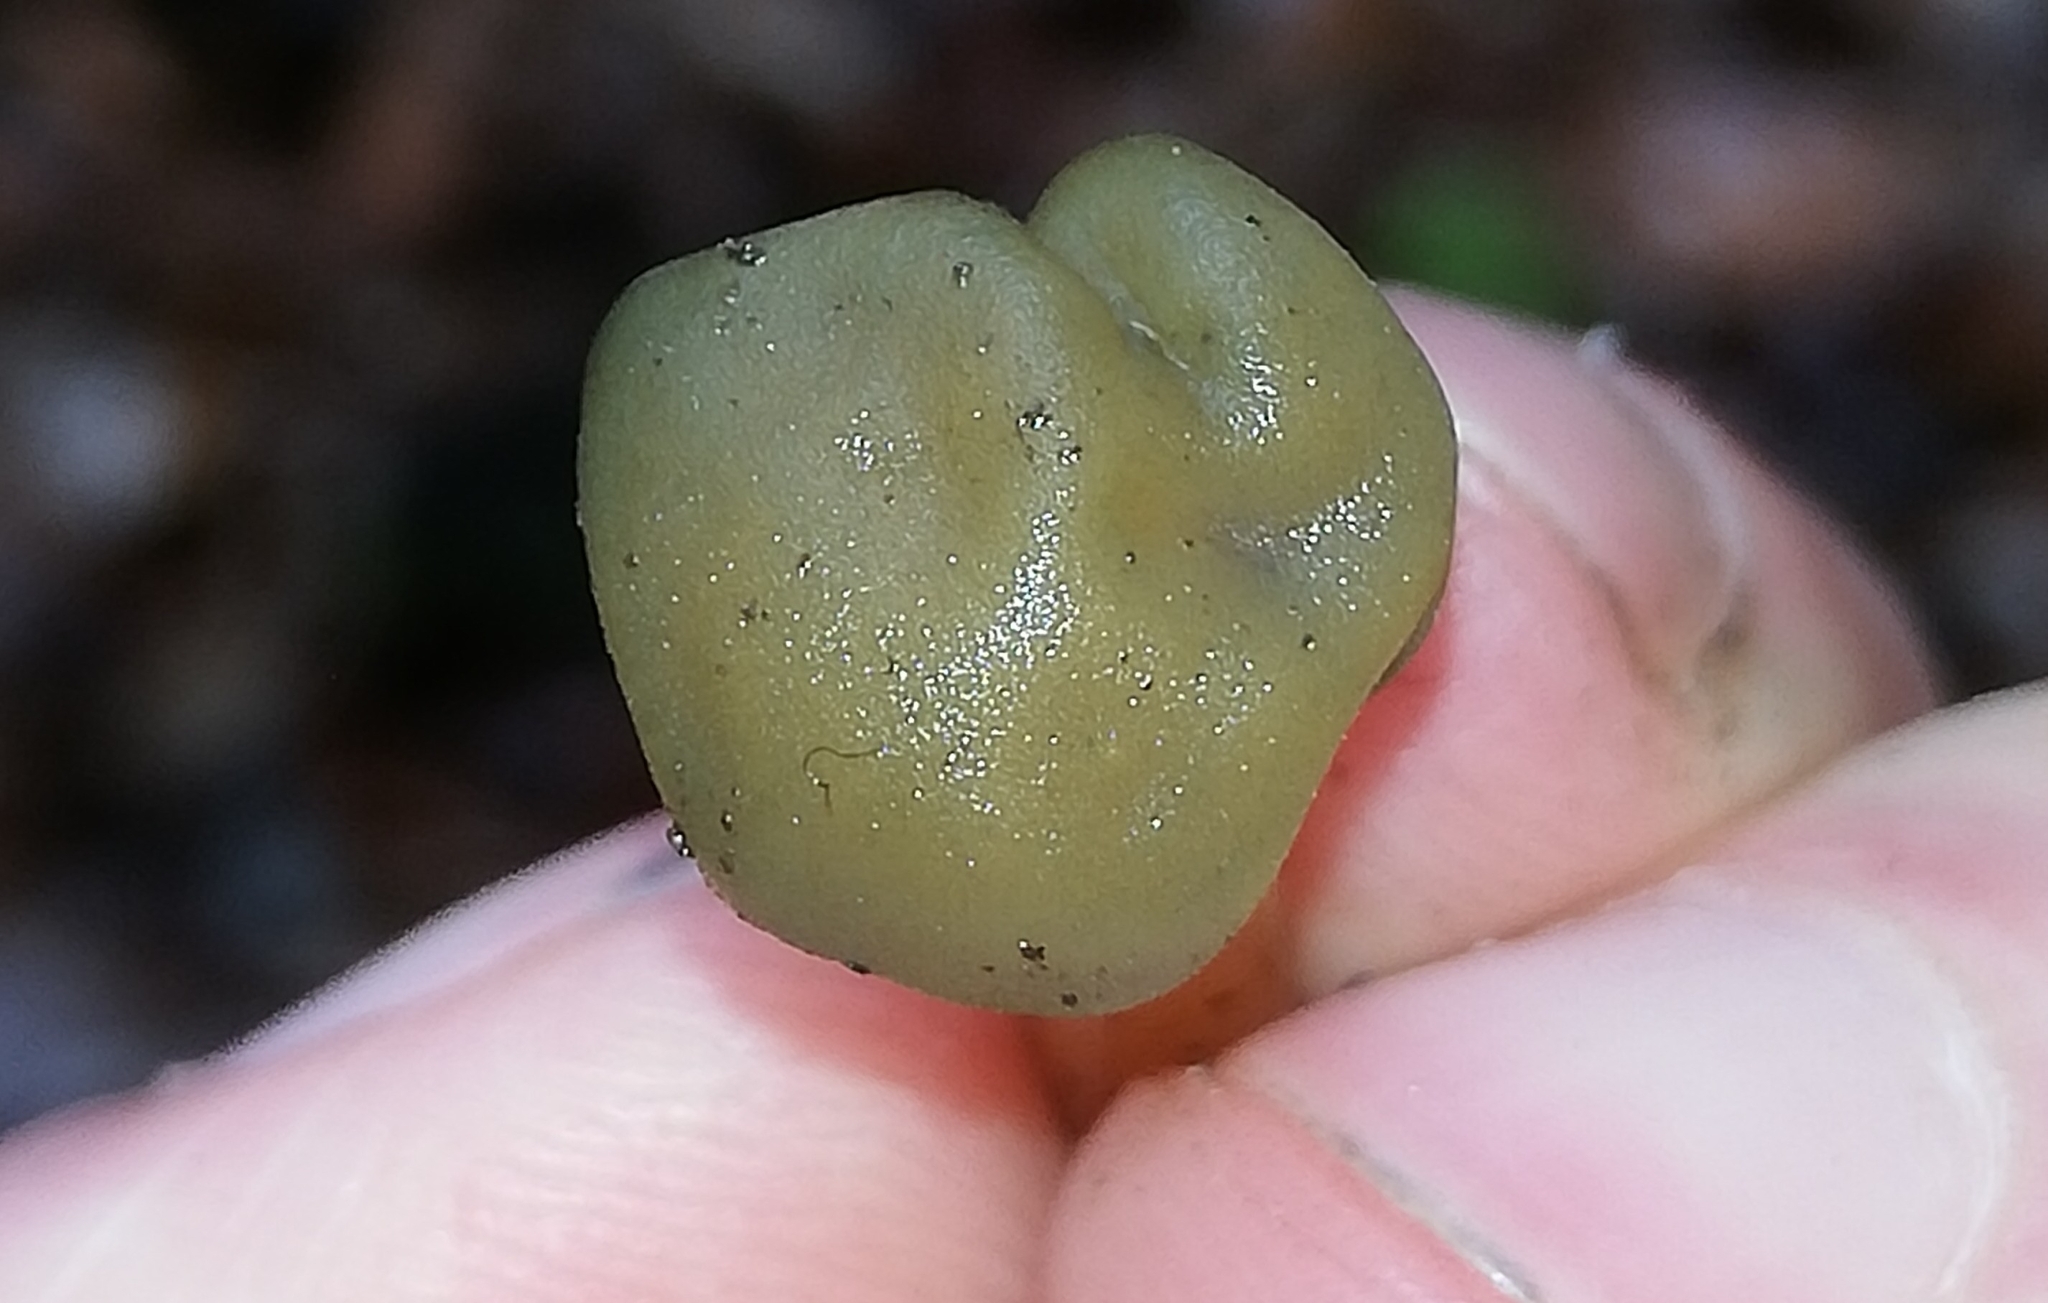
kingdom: Fungi
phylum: Ascomycota
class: Leotiomycetes
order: Leotiales
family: Leotiaceae
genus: Leotia
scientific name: Leotia lubrica
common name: Jellybaby
